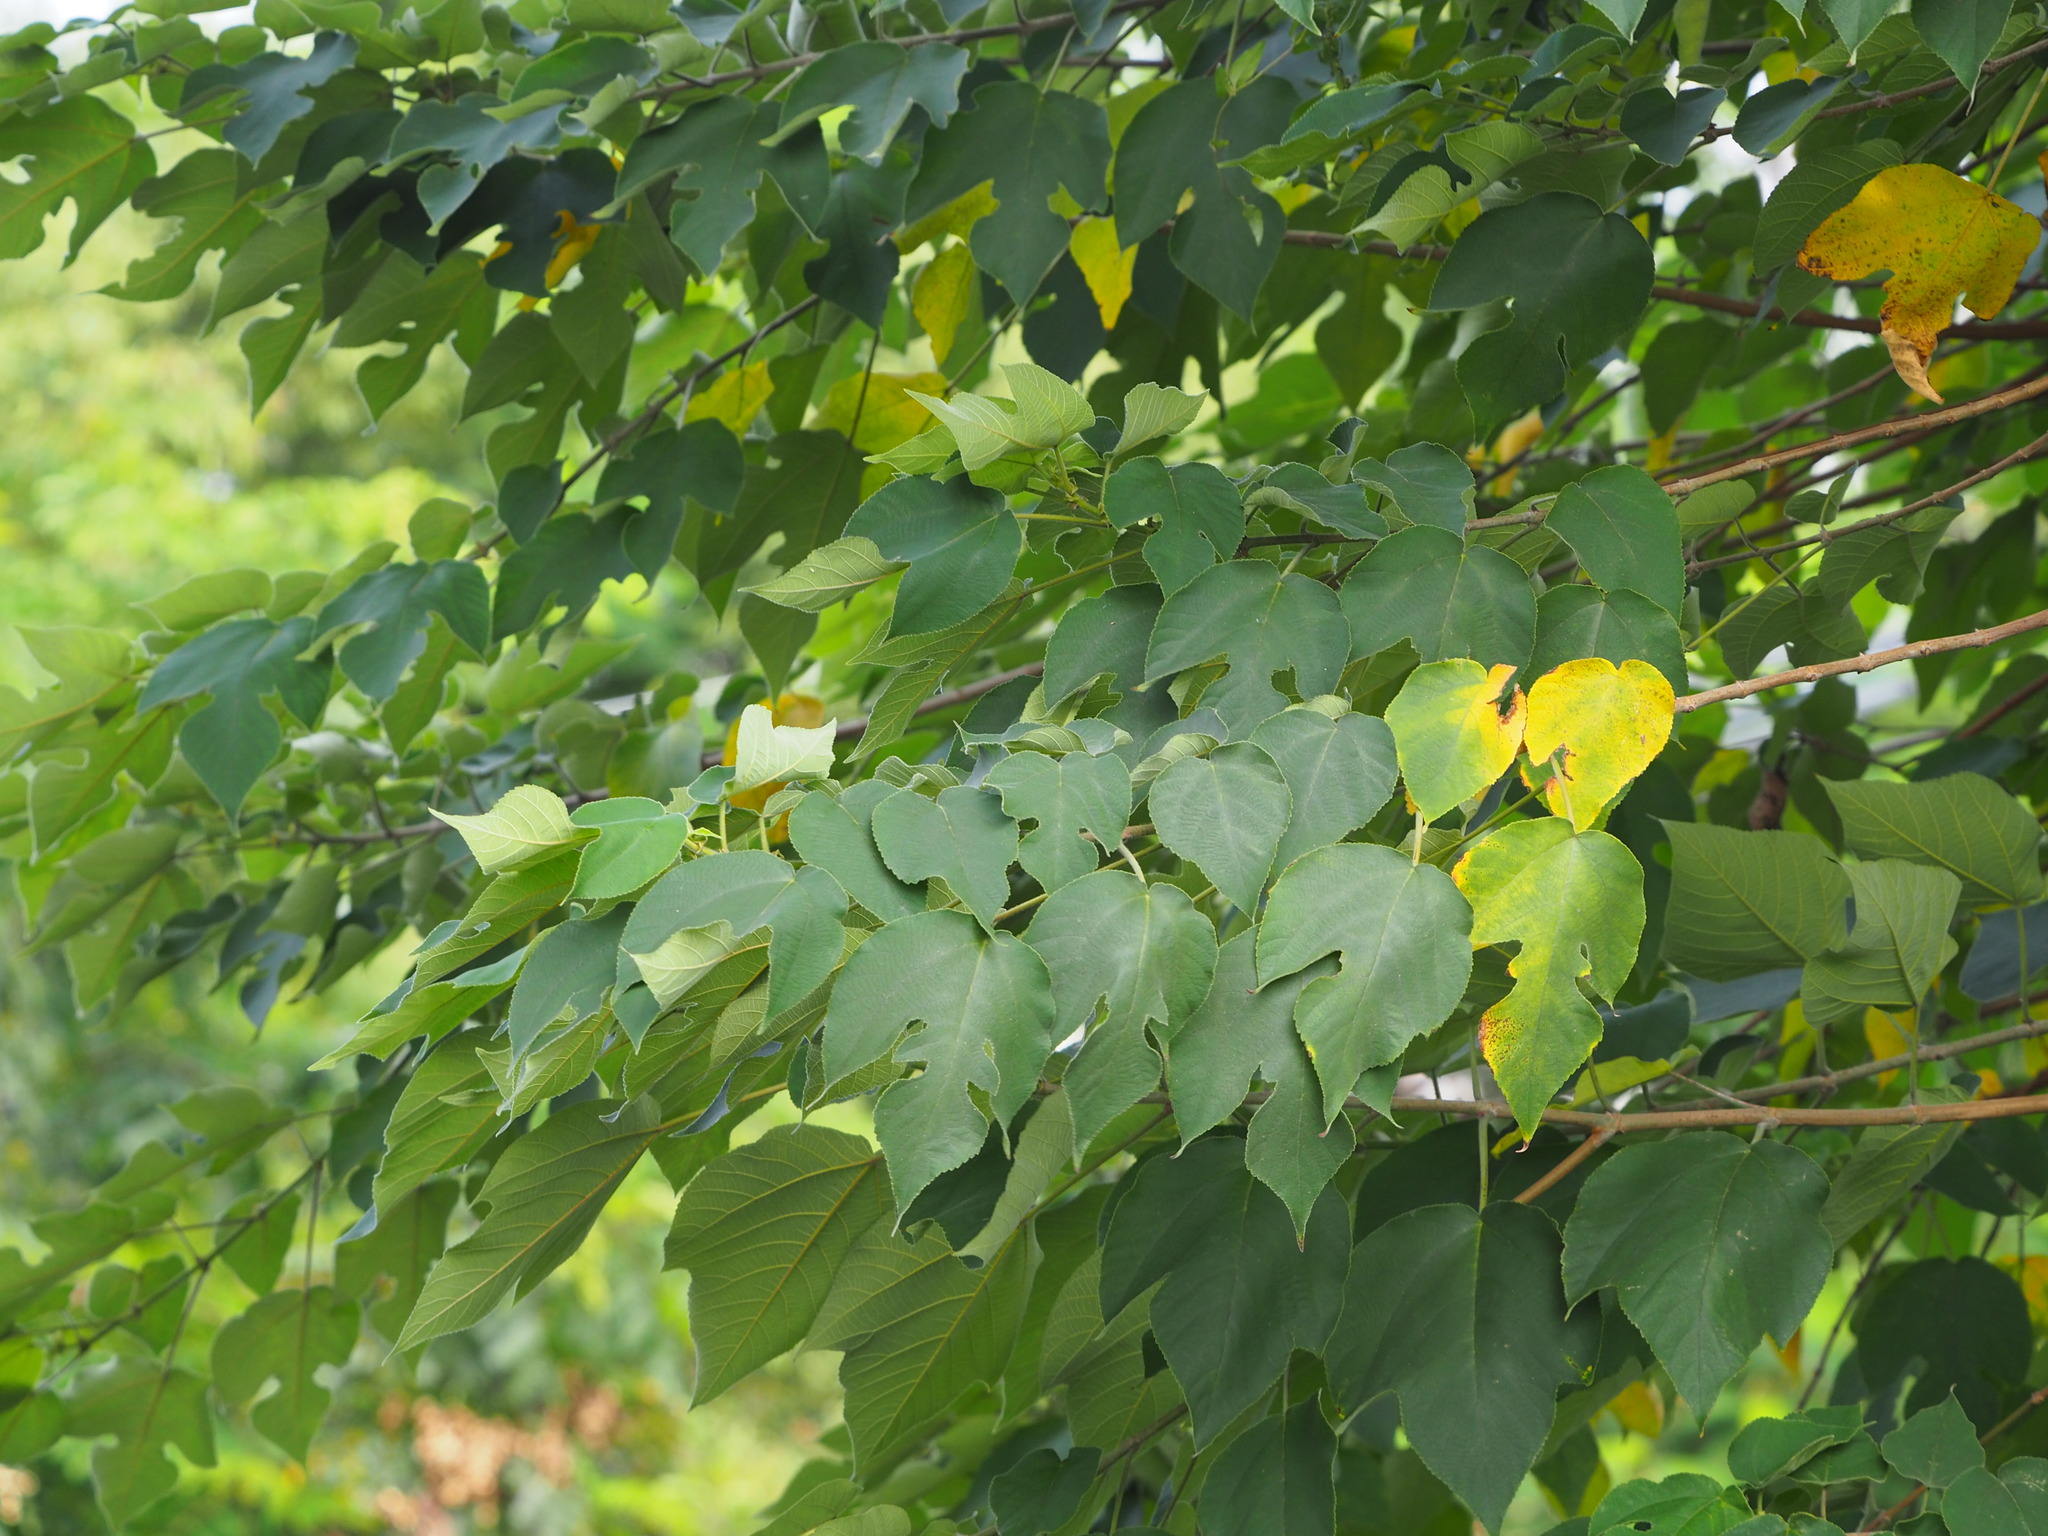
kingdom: Plantae
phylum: Tracheophyta
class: Magnoliopsida
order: Rosales
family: Moraceae
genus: Broussonetia
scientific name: Broussonetia papyrifera
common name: Paper mulberry
